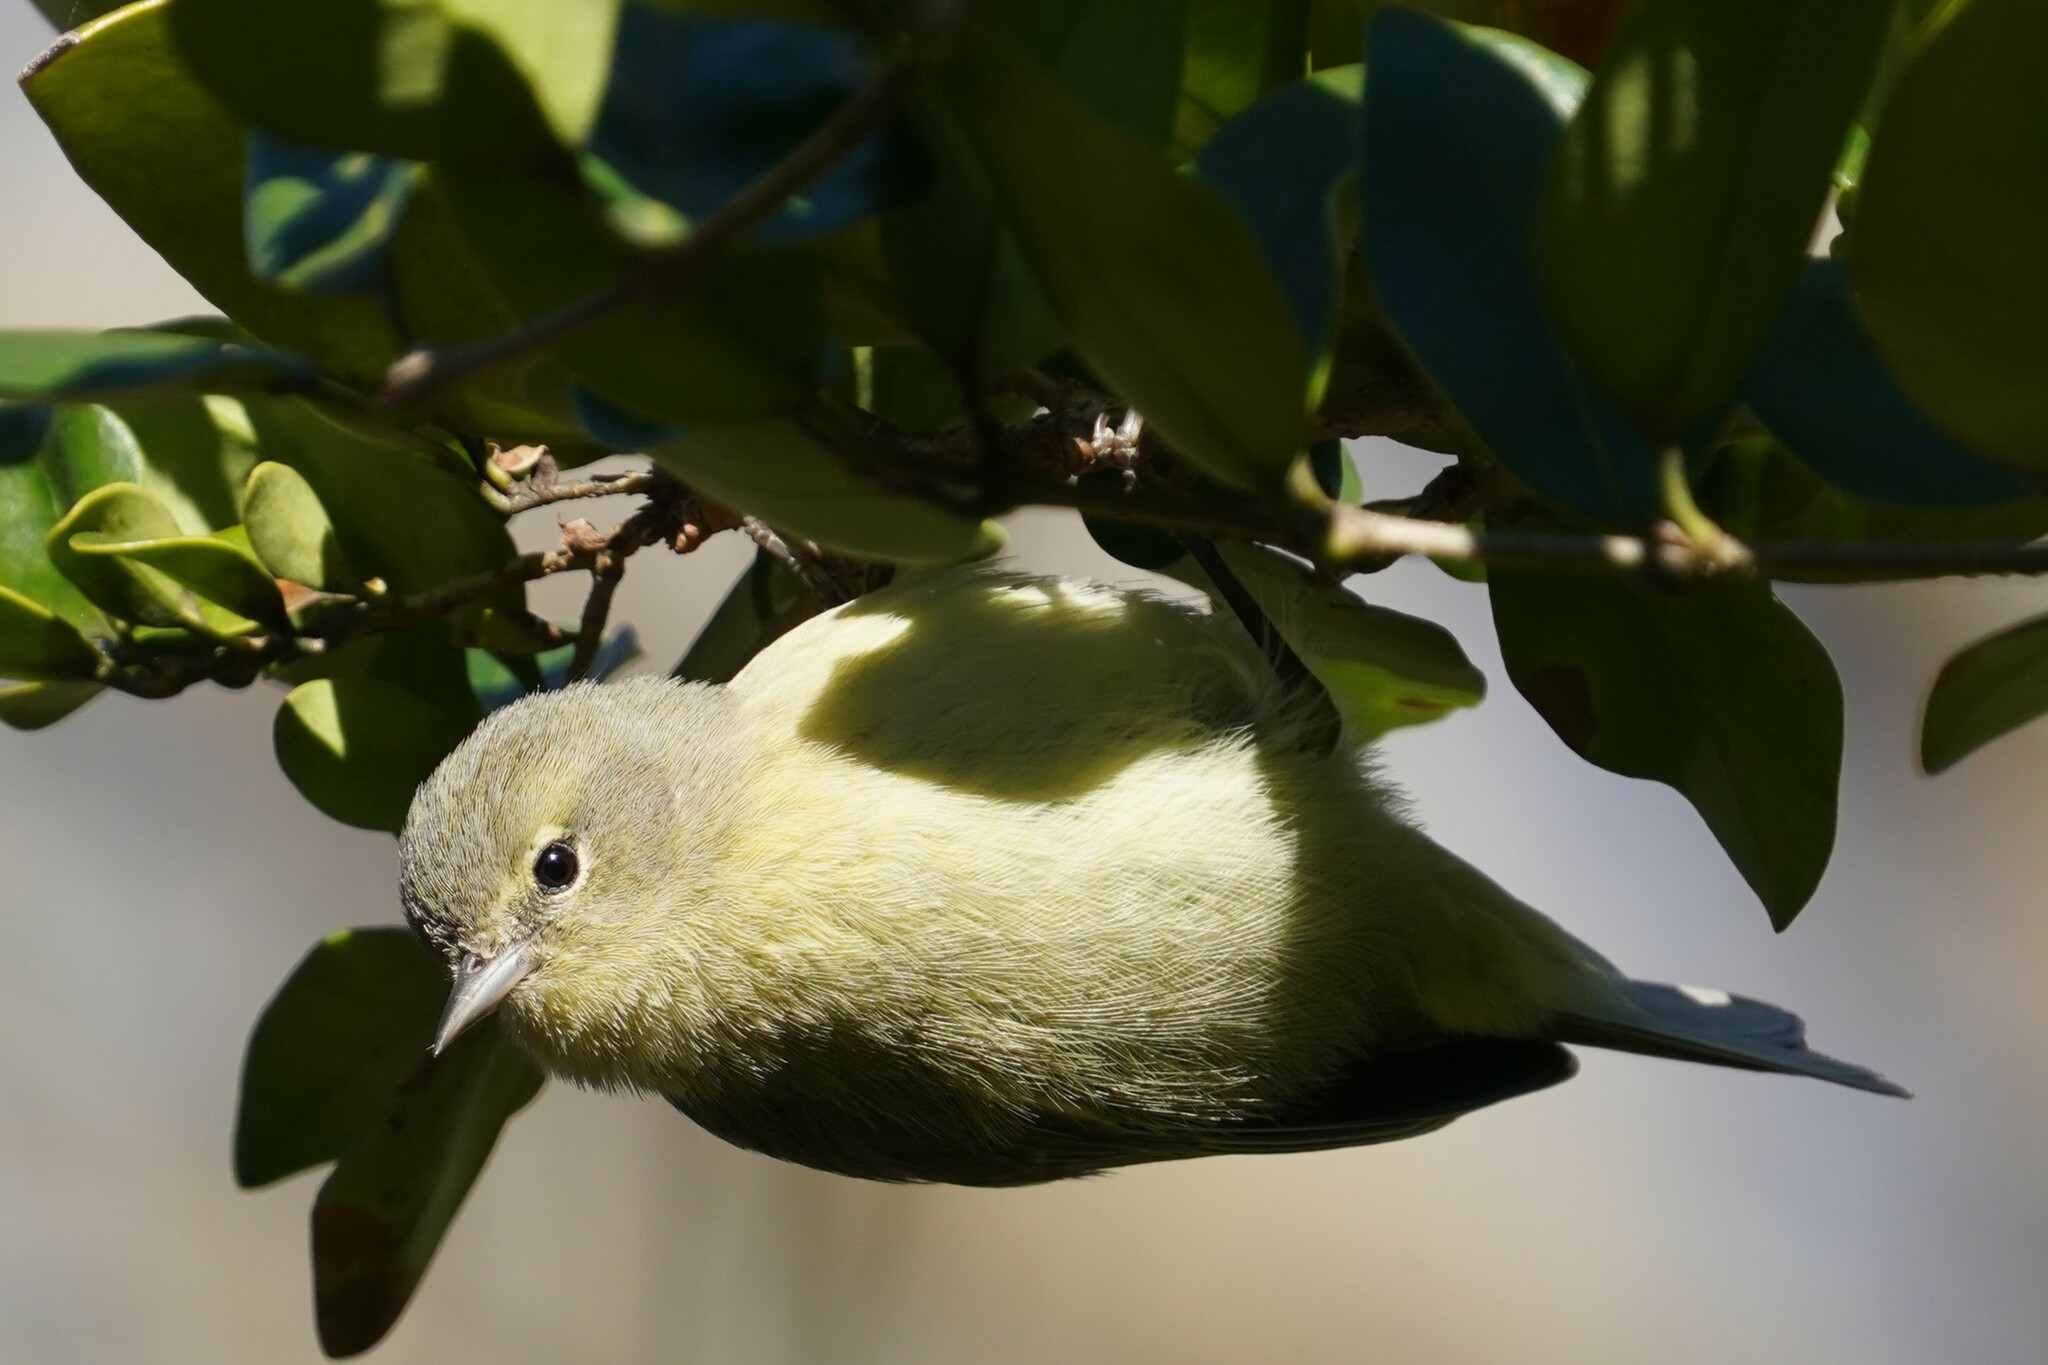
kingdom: Animalia
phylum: Chordata
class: Aves
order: Passeriformes
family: Parulidae
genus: Leiothlypis
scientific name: Leiothlypis celata
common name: Orange-crowned warbler
